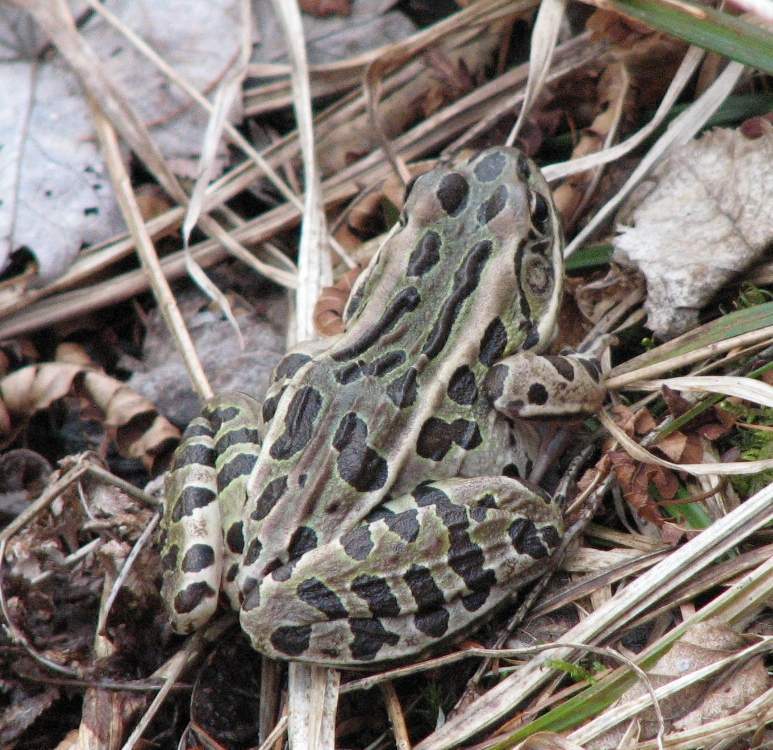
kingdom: Animalia
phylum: Chordata
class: Amphibia
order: Anura
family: Ranidae
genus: Lithobates
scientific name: Lithobates pipiens
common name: Northern leopard frog
